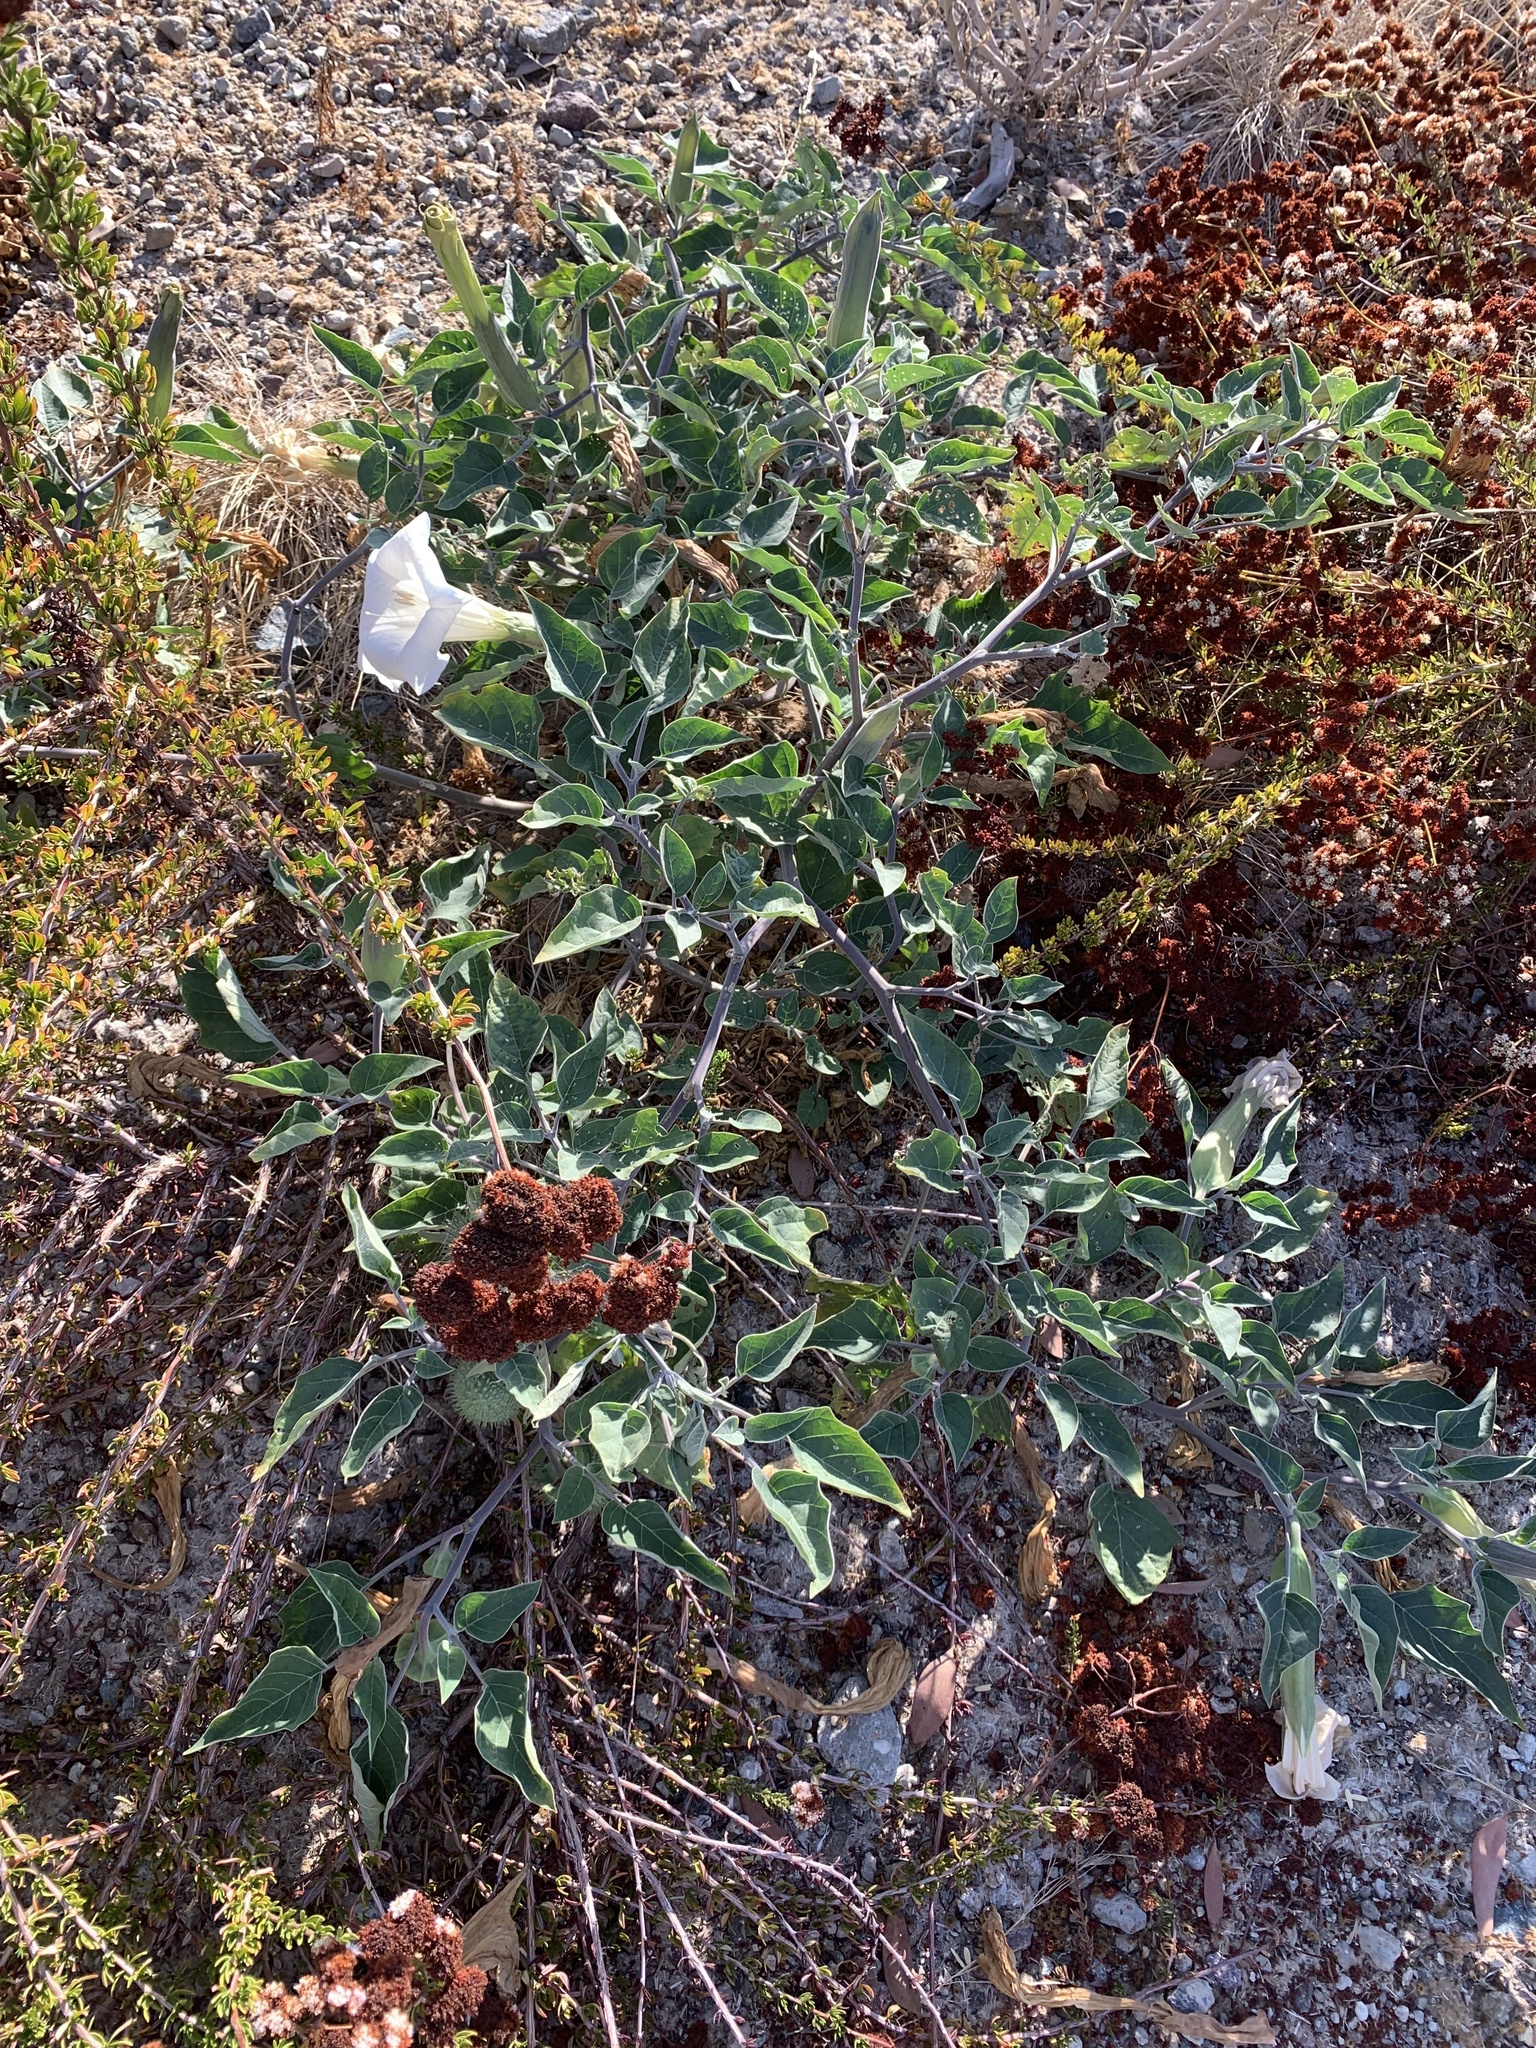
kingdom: Plantae
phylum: Tracheophyta
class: Magnoliopsida
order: Solanales
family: Solanaceae
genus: Datura
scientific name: Datura wrightii
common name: Sacred thorn-apple
